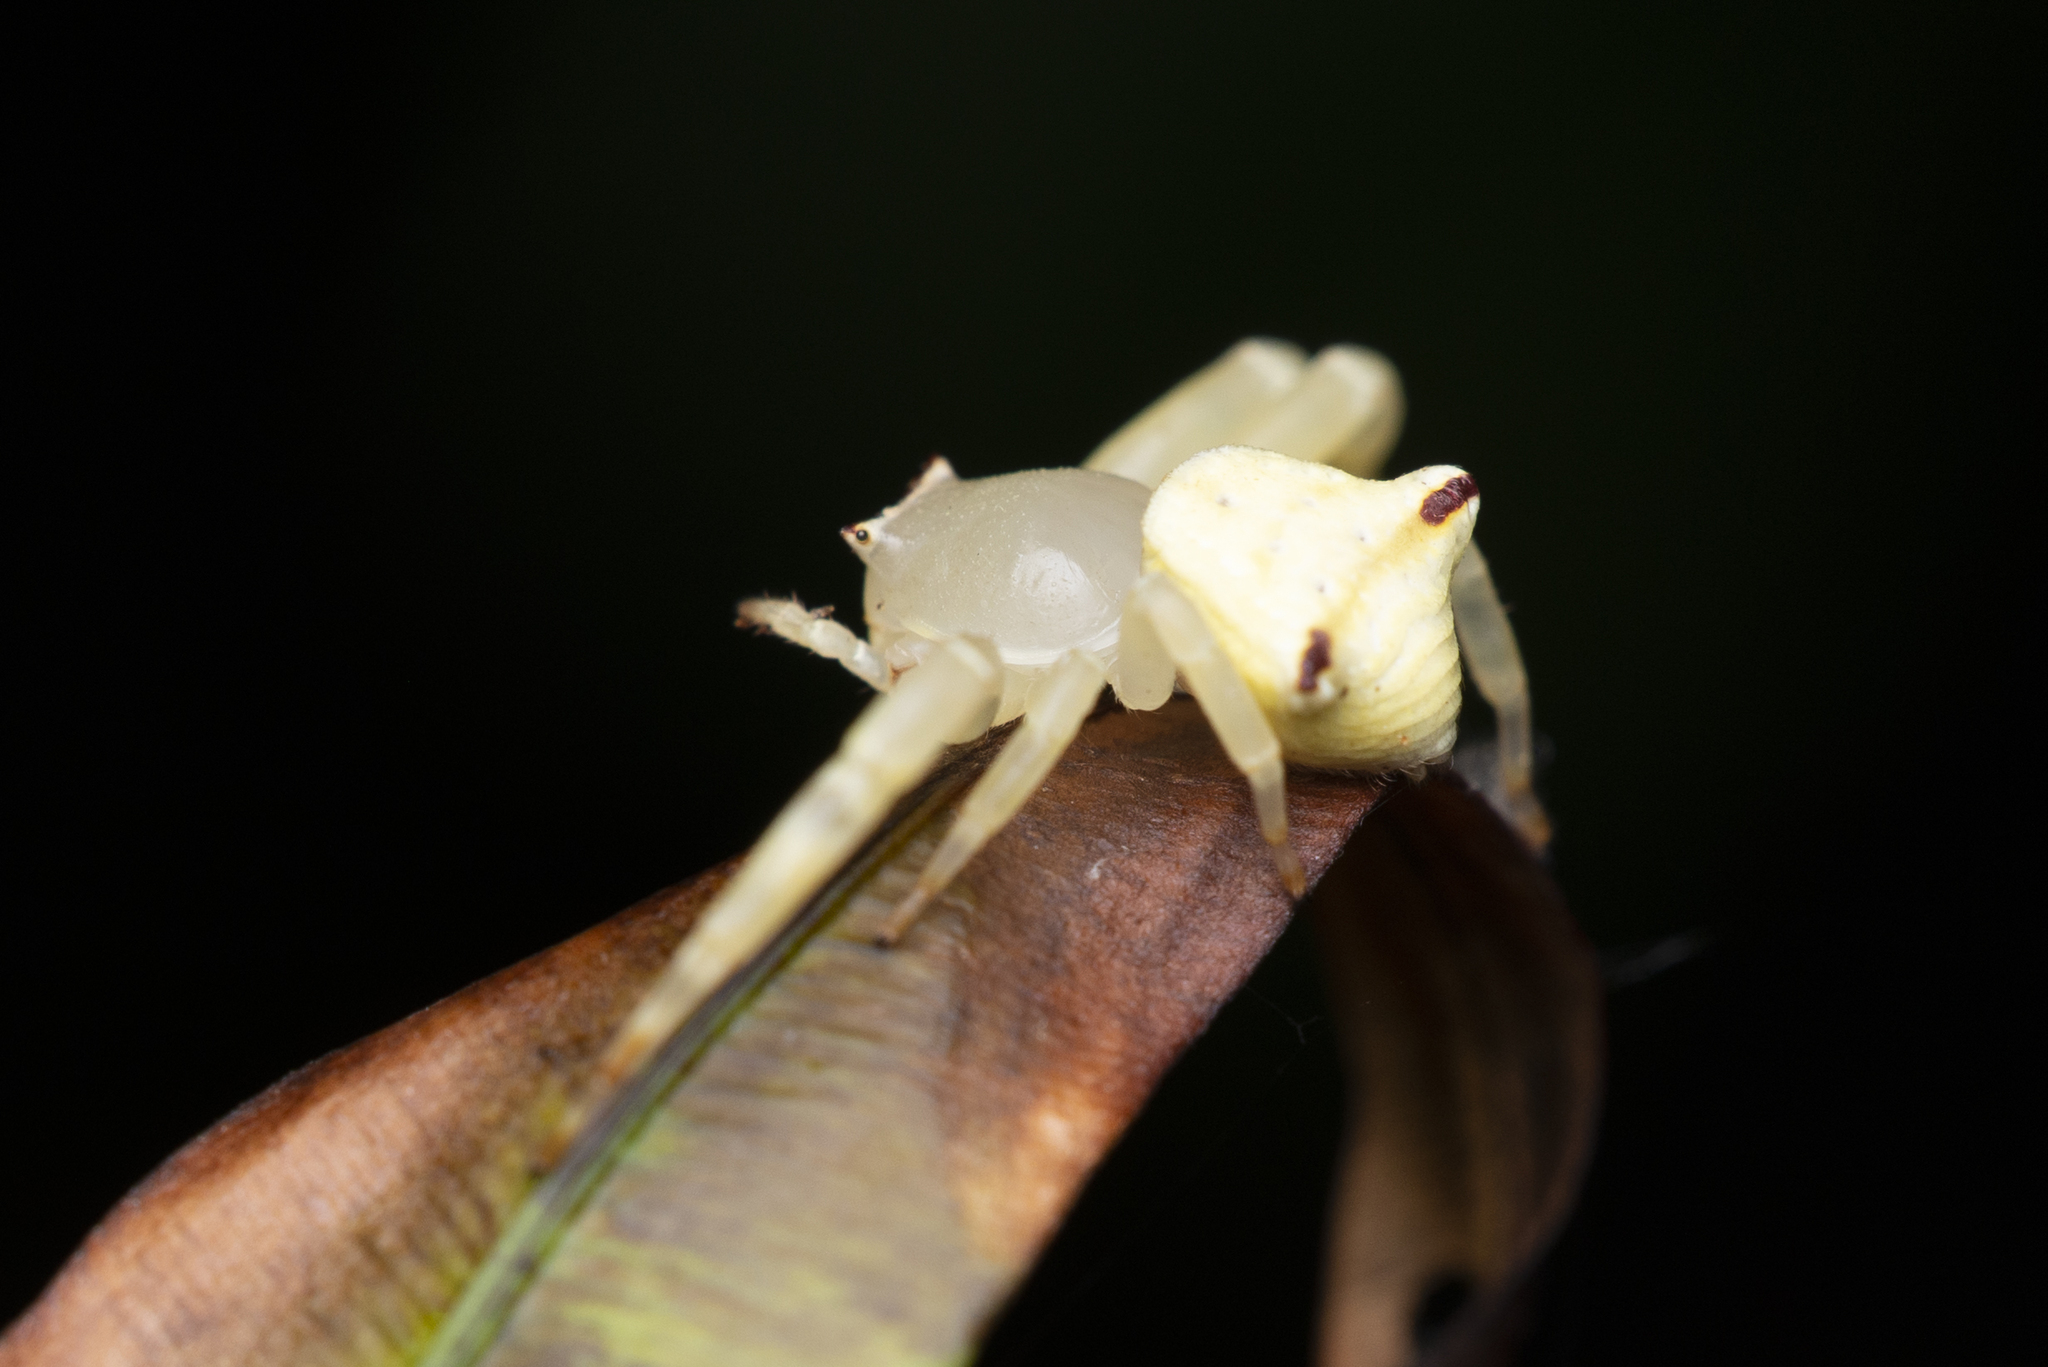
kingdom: Animalia
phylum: Arthropoda
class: Arachnida
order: Araneae
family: Thomisidae
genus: Thomisus
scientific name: Thomisus labefactus
